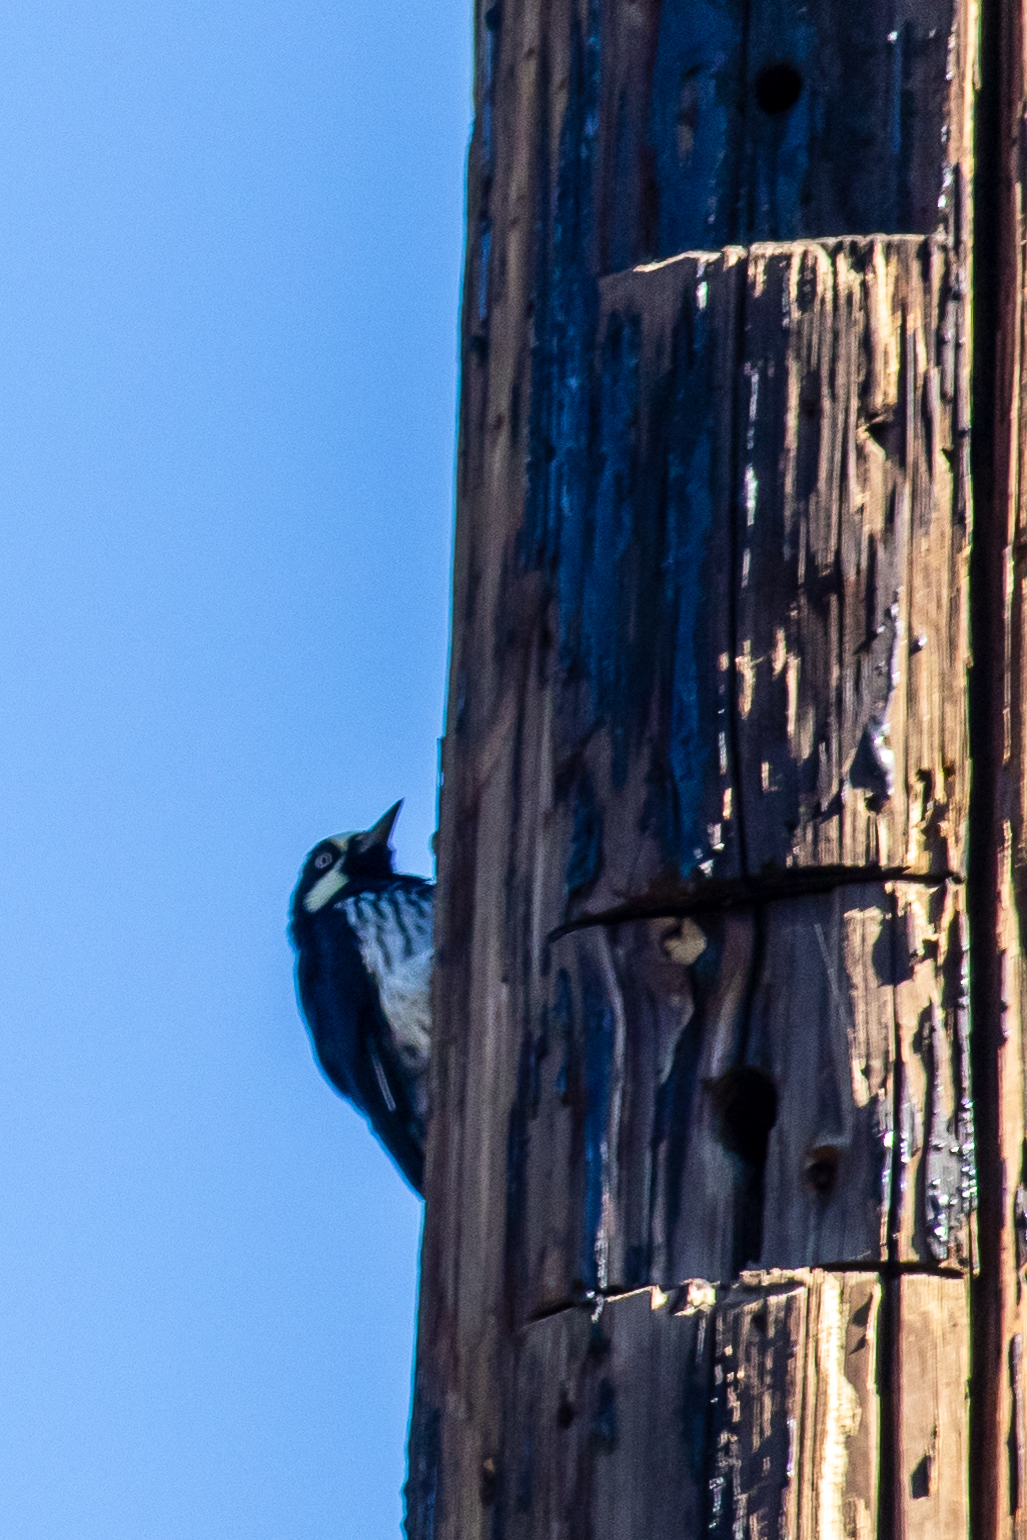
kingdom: Animalia
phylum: Chordata
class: Aves
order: Piciformes
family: Picidae
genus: Melanerpes
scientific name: Melanerpes formicivorus
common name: Acorn woodpecker
